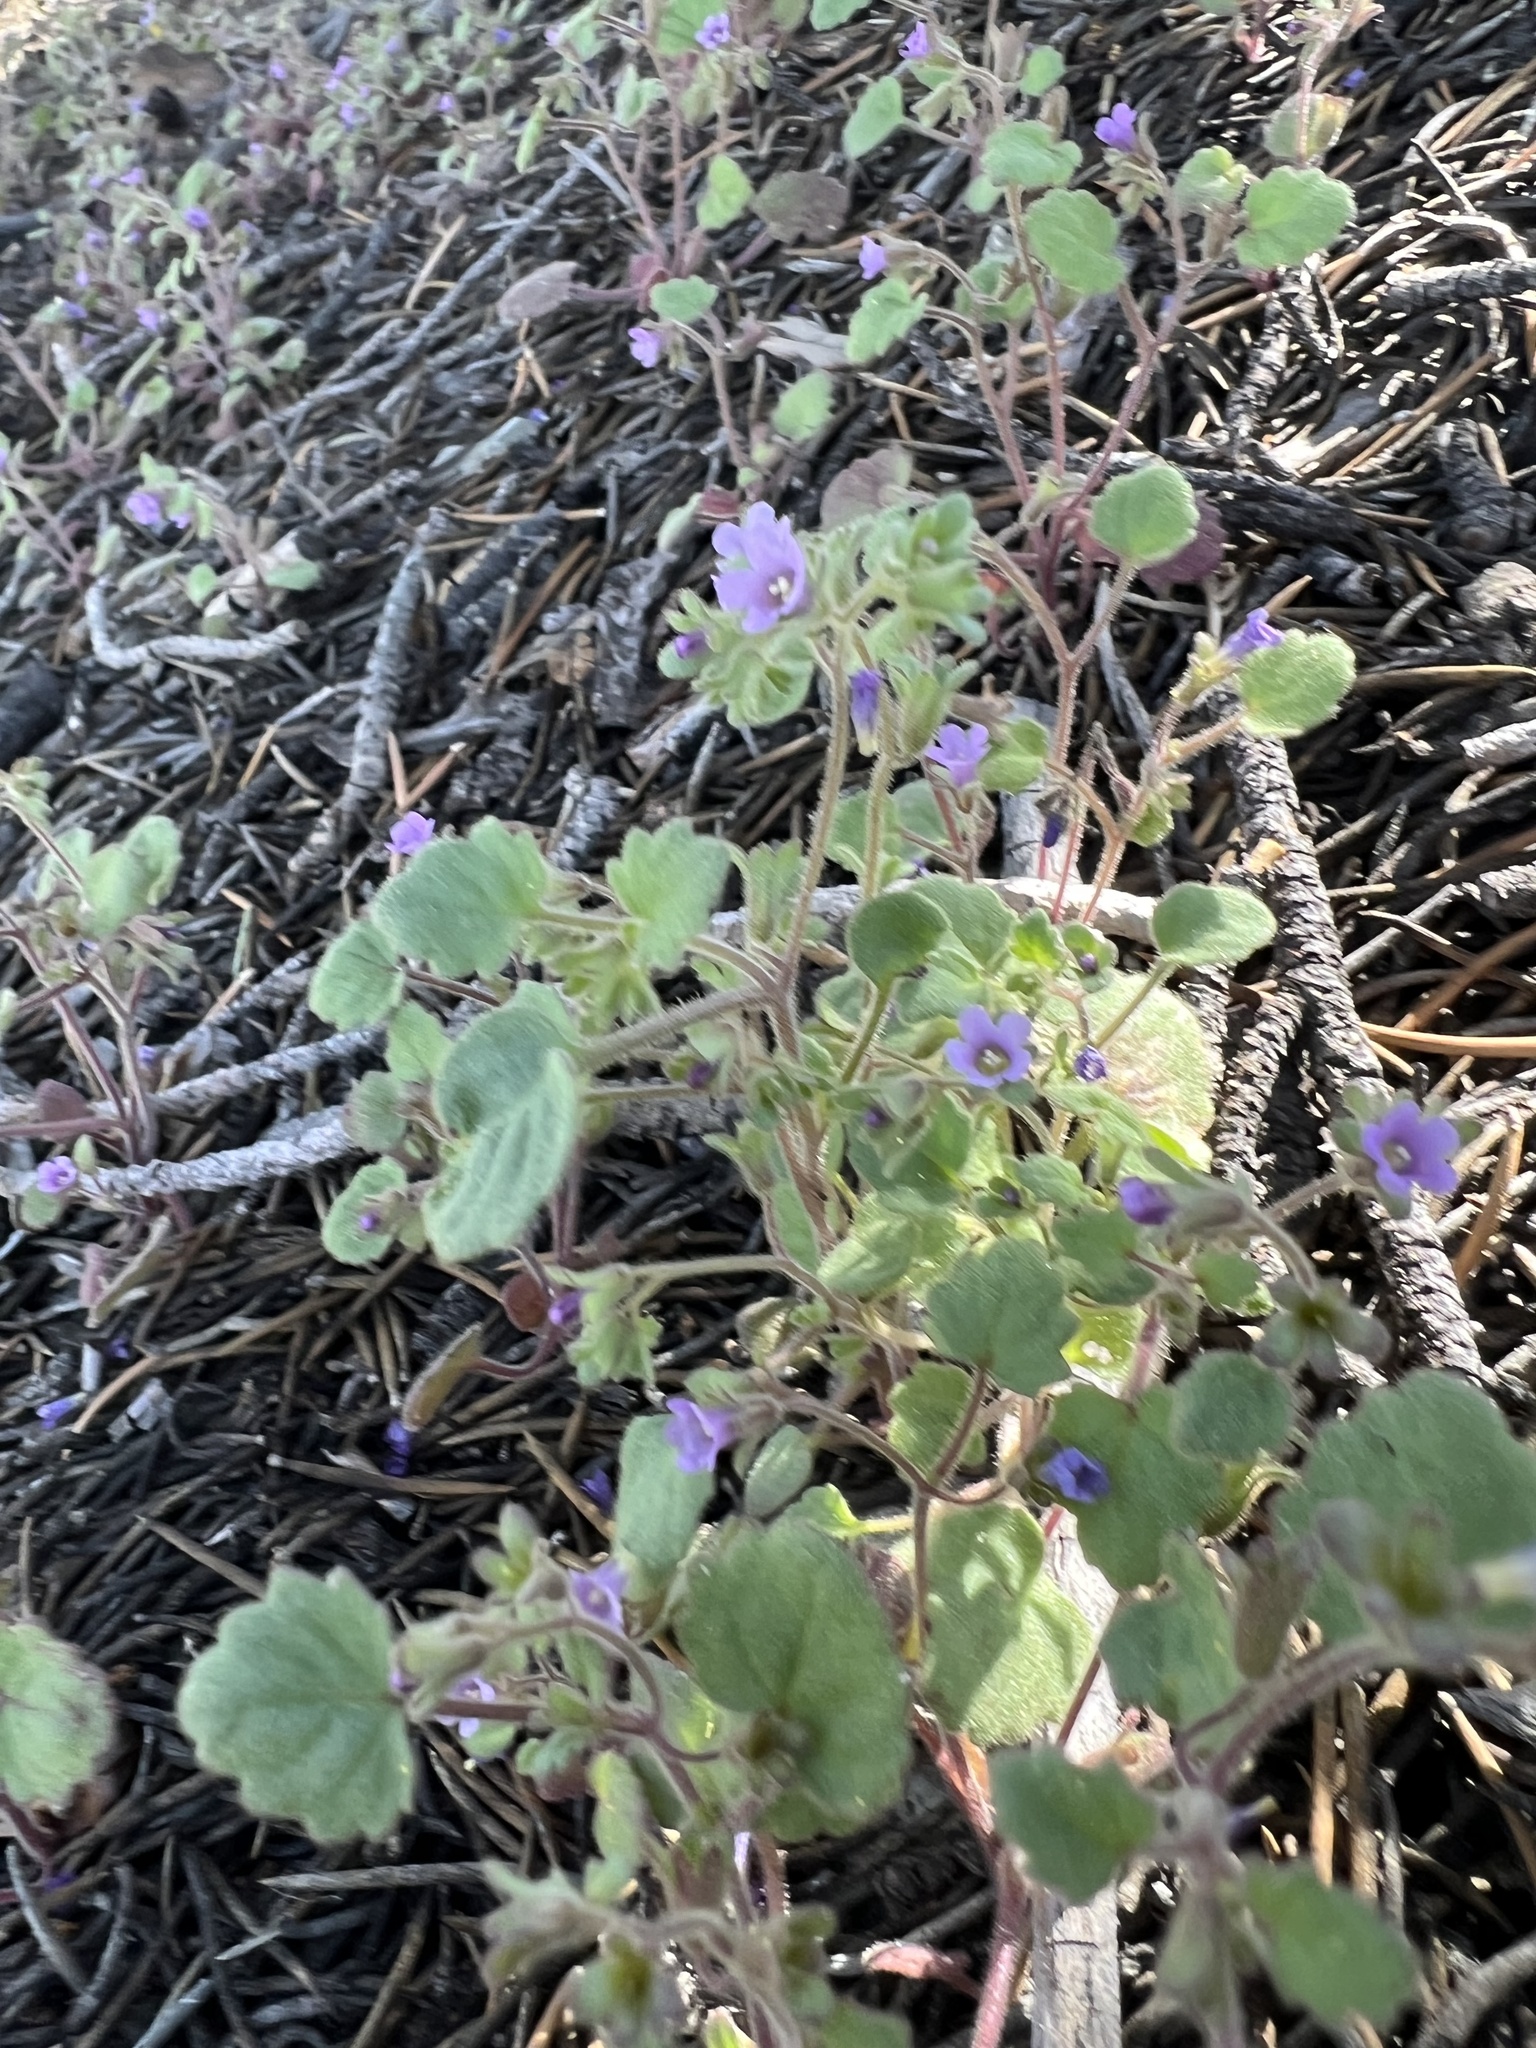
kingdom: Plantae
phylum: Tracheophyta
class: Magnoliopsida
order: Boraginales
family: Hydrophyllaceae
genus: Phacelia
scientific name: Phacelia peirsoniana
